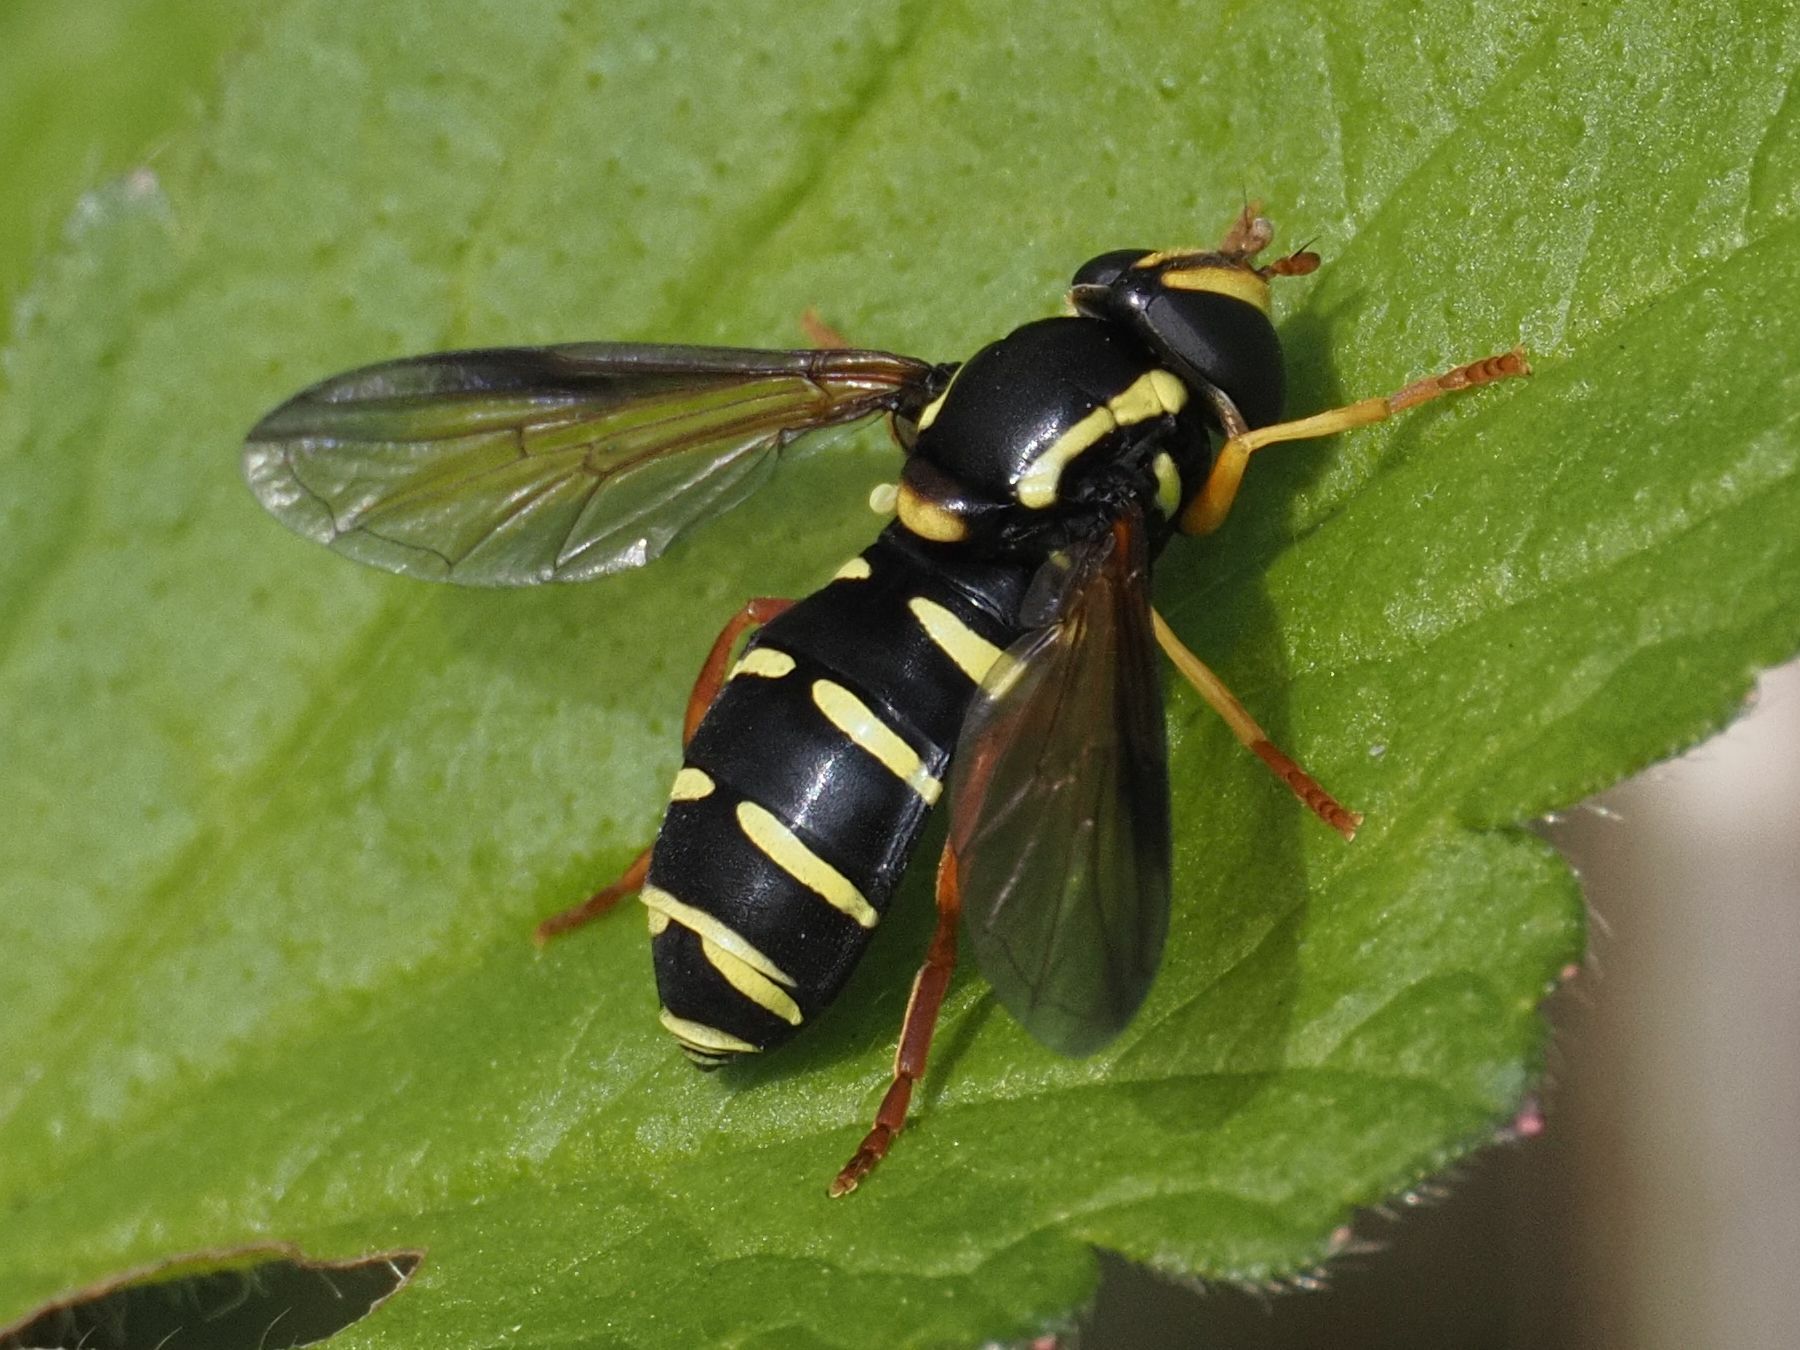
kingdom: Animalia
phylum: Arthropoda
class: Insecta
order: Diptera
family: Syrphidae
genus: Philhelius
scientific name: Philhelius citrofasciata
